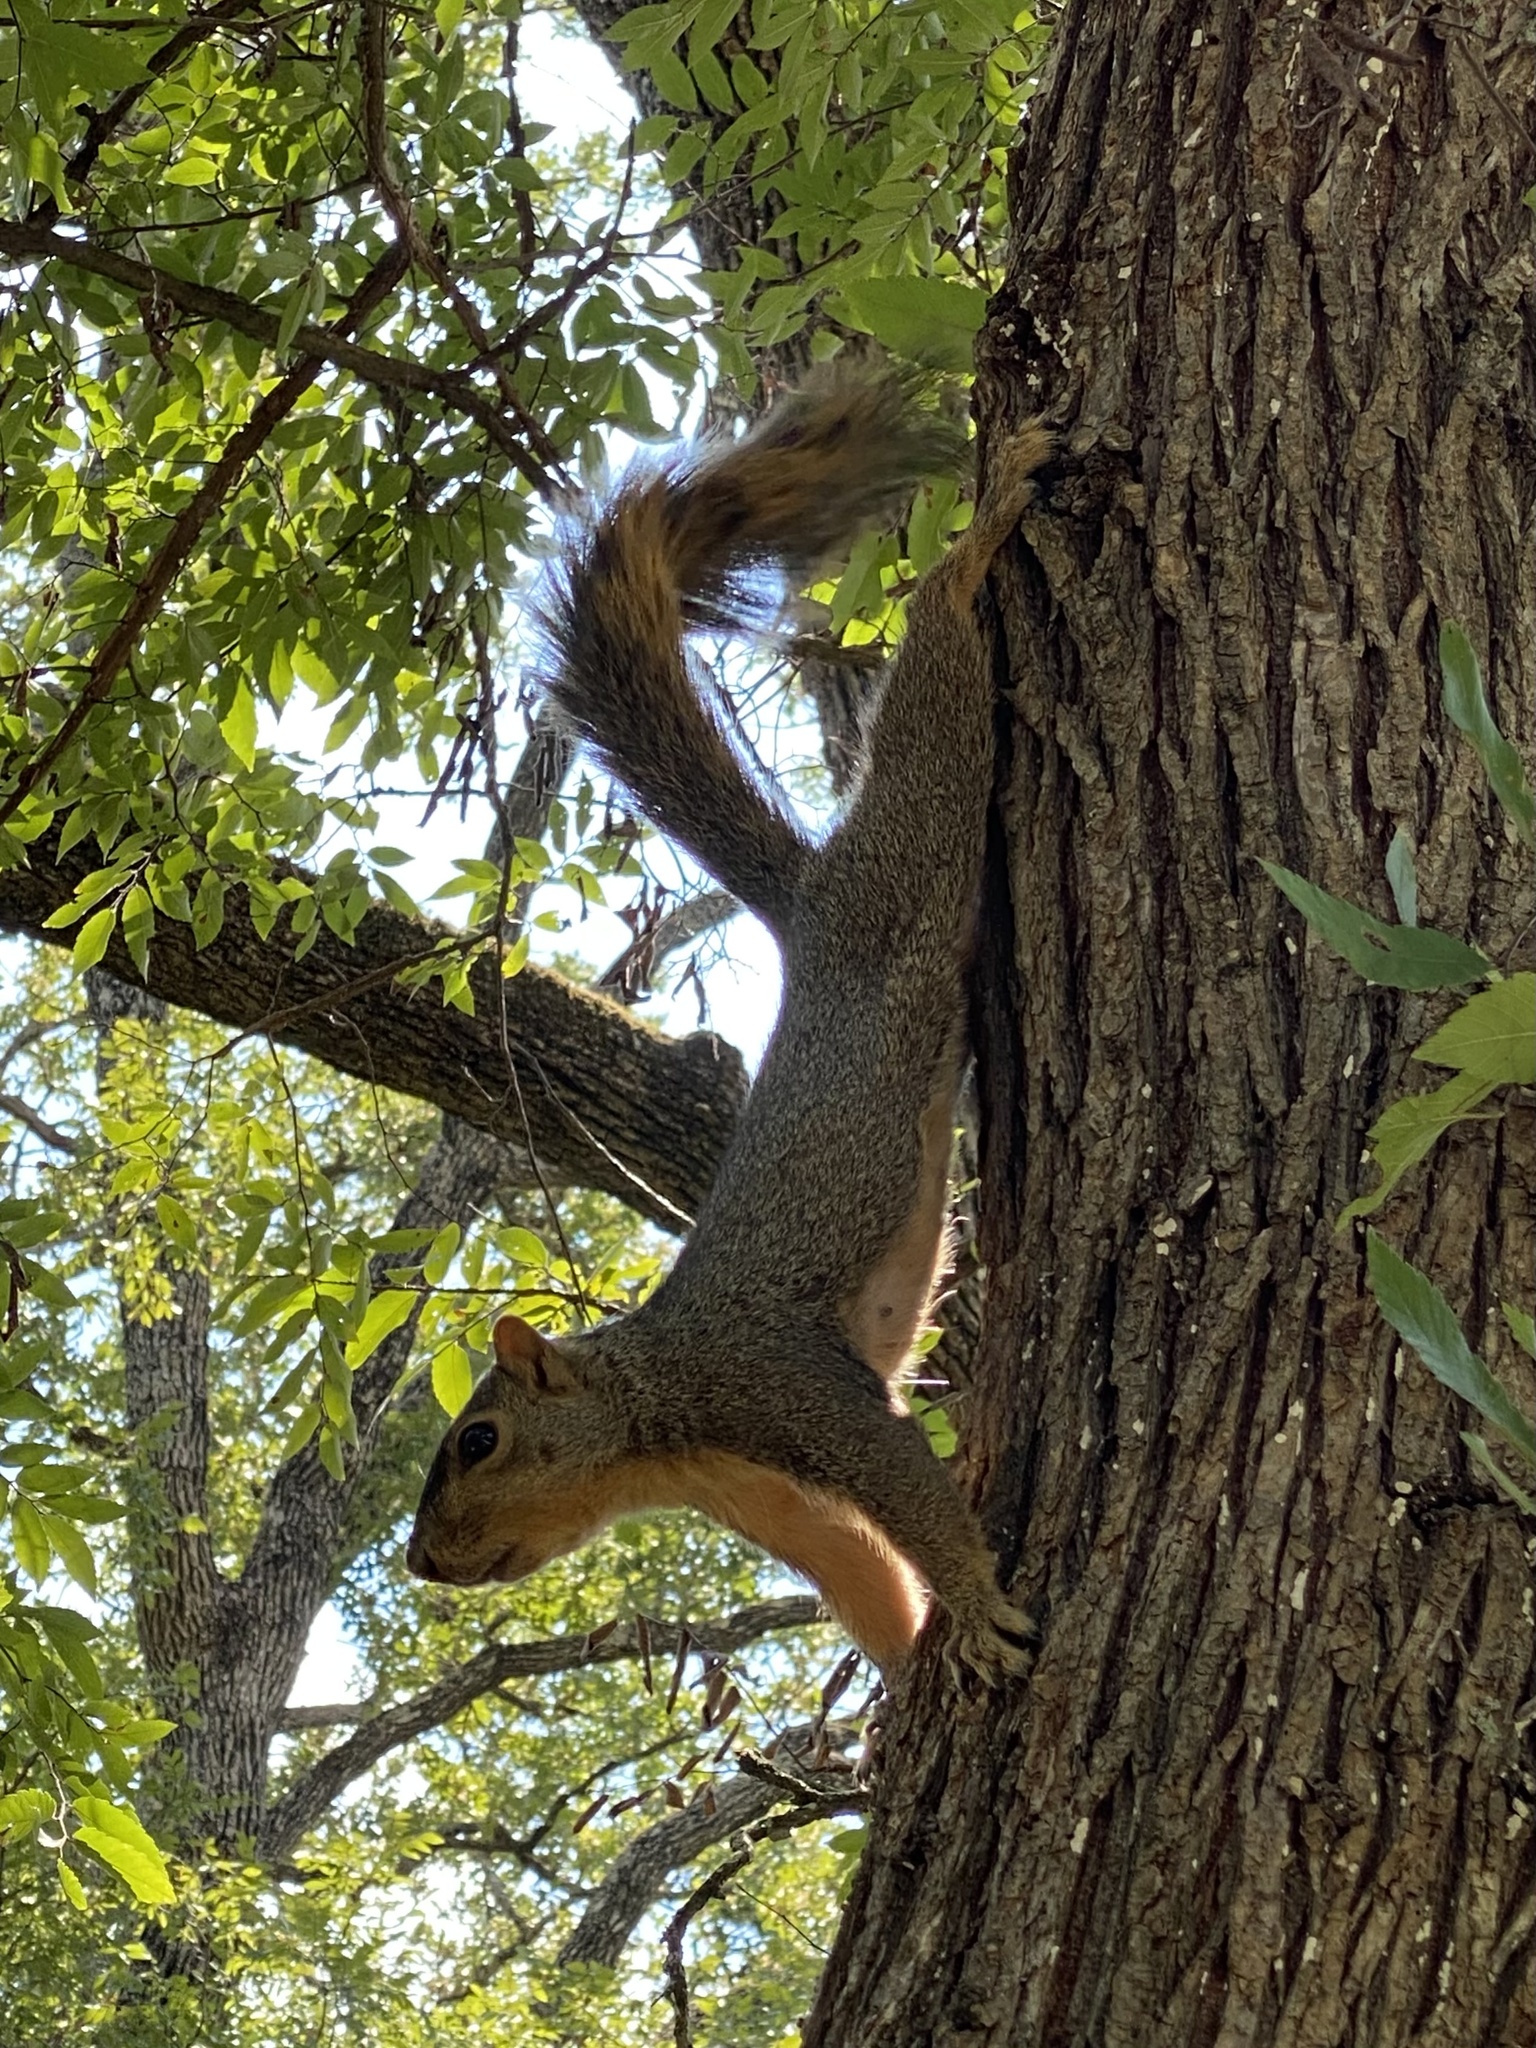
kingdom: Animalia
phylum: Chordata
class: Mammalia
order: Rodentia
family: Sciuridae
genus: Sciurus
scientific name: Sciurus niger
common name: Fox squirrel
